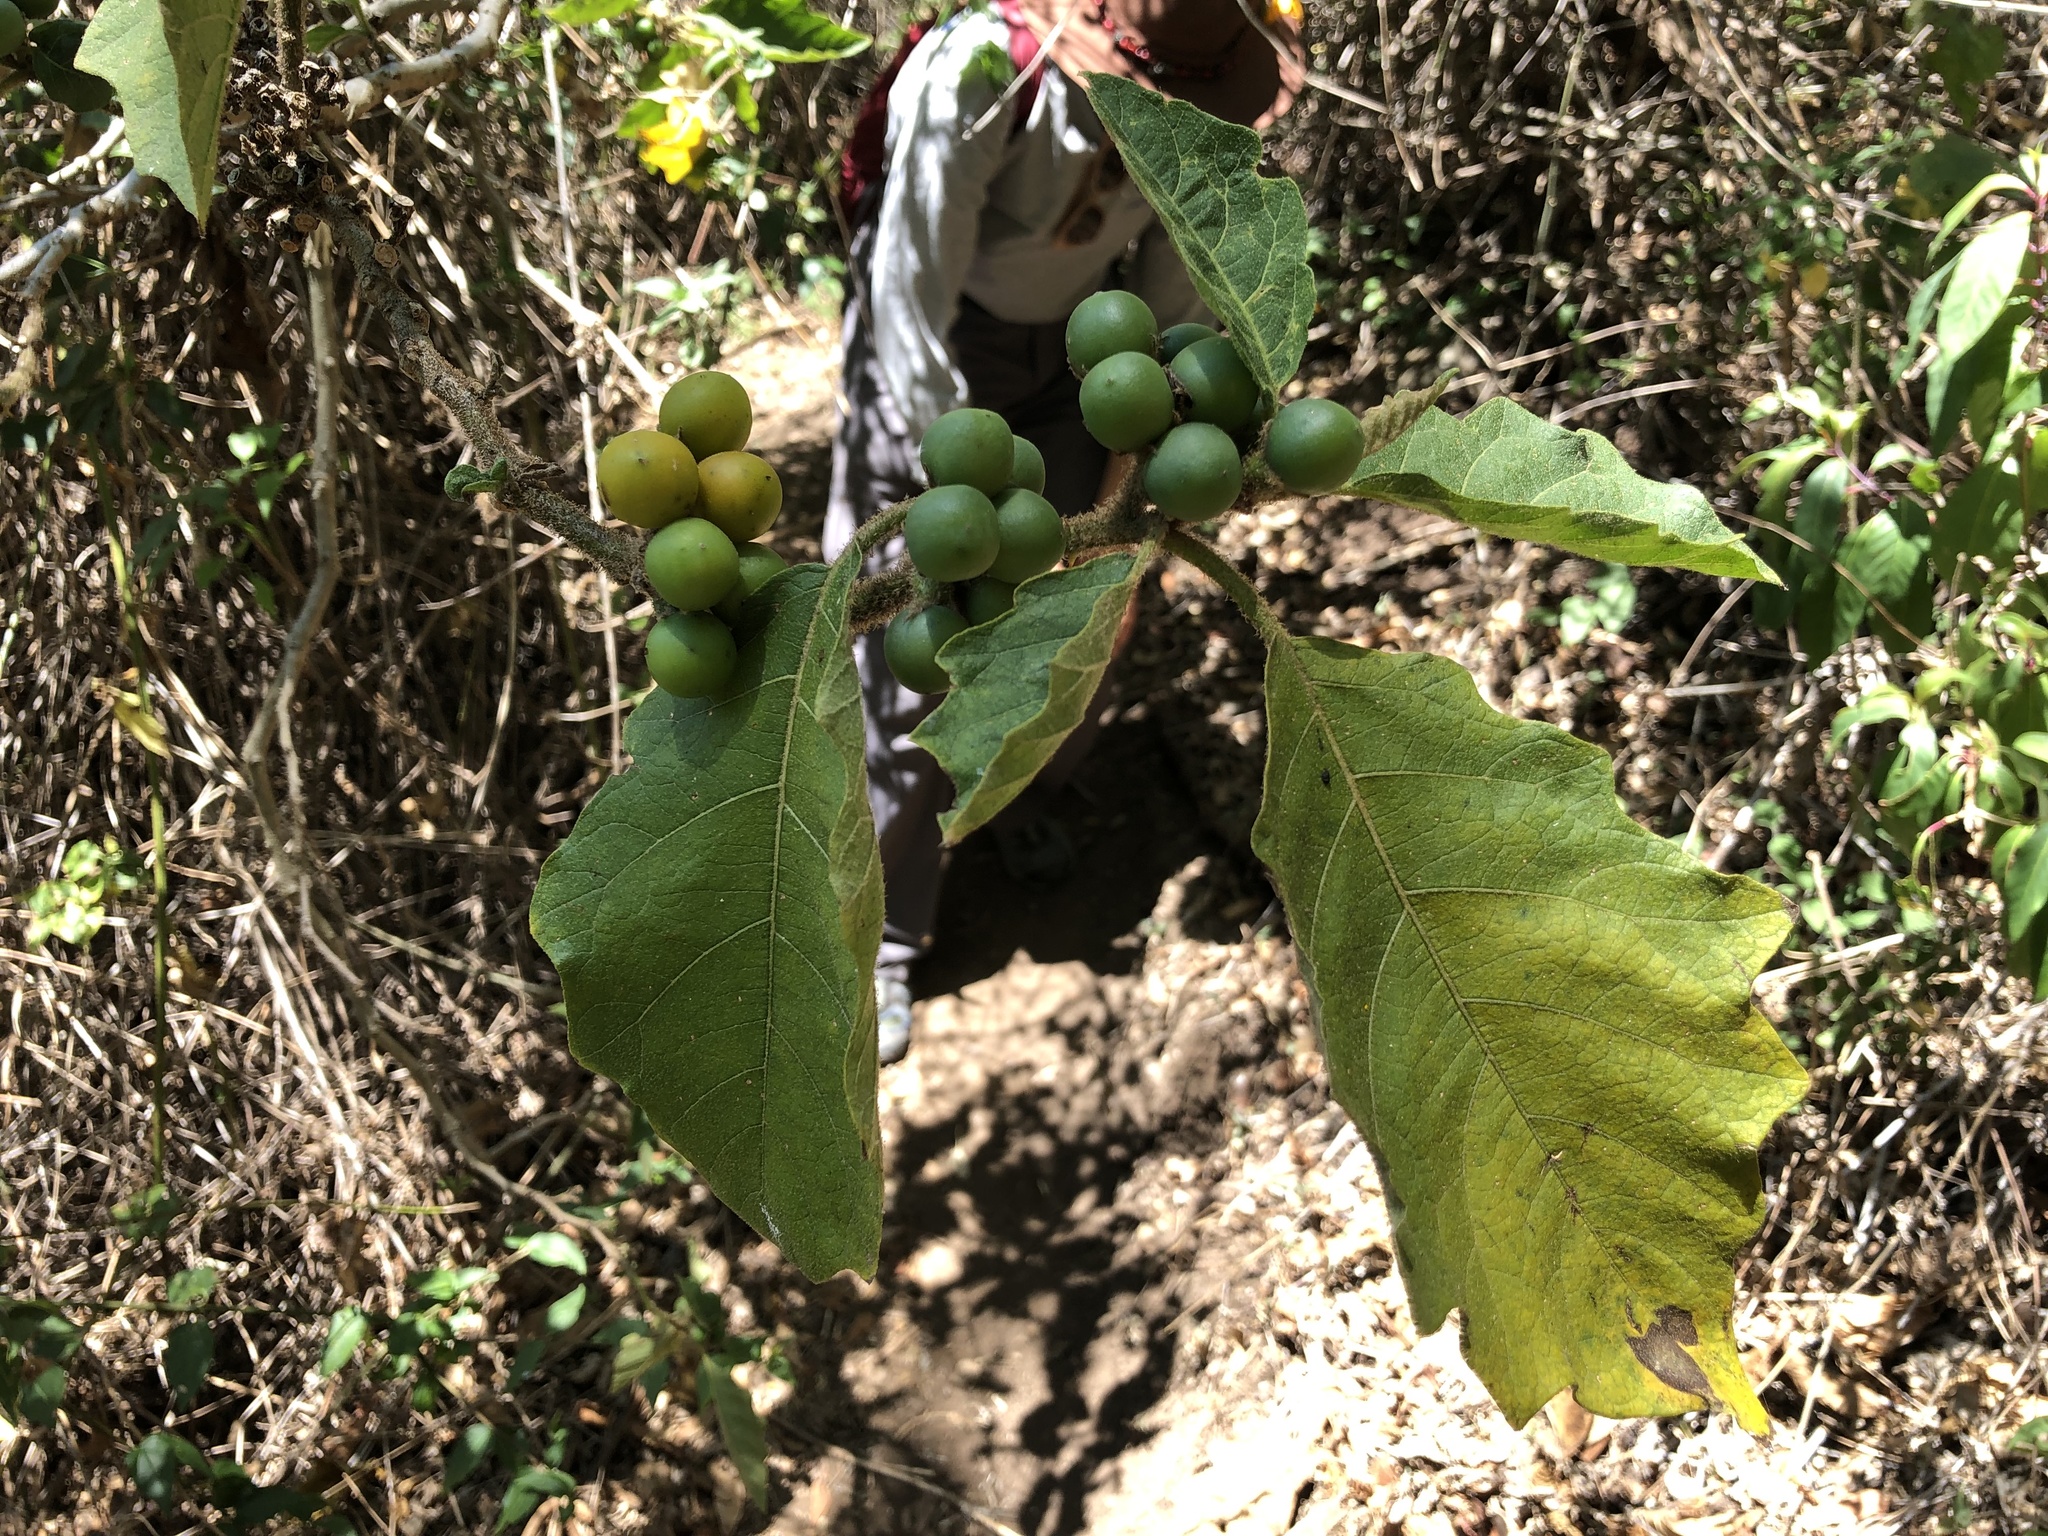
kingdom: Plantae
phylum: Tracheophyta
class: Magnoliopsida
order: Solanales
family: Solanaceae
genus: Solanum
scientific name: Solanum chrysotrichum
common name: Nightshade
